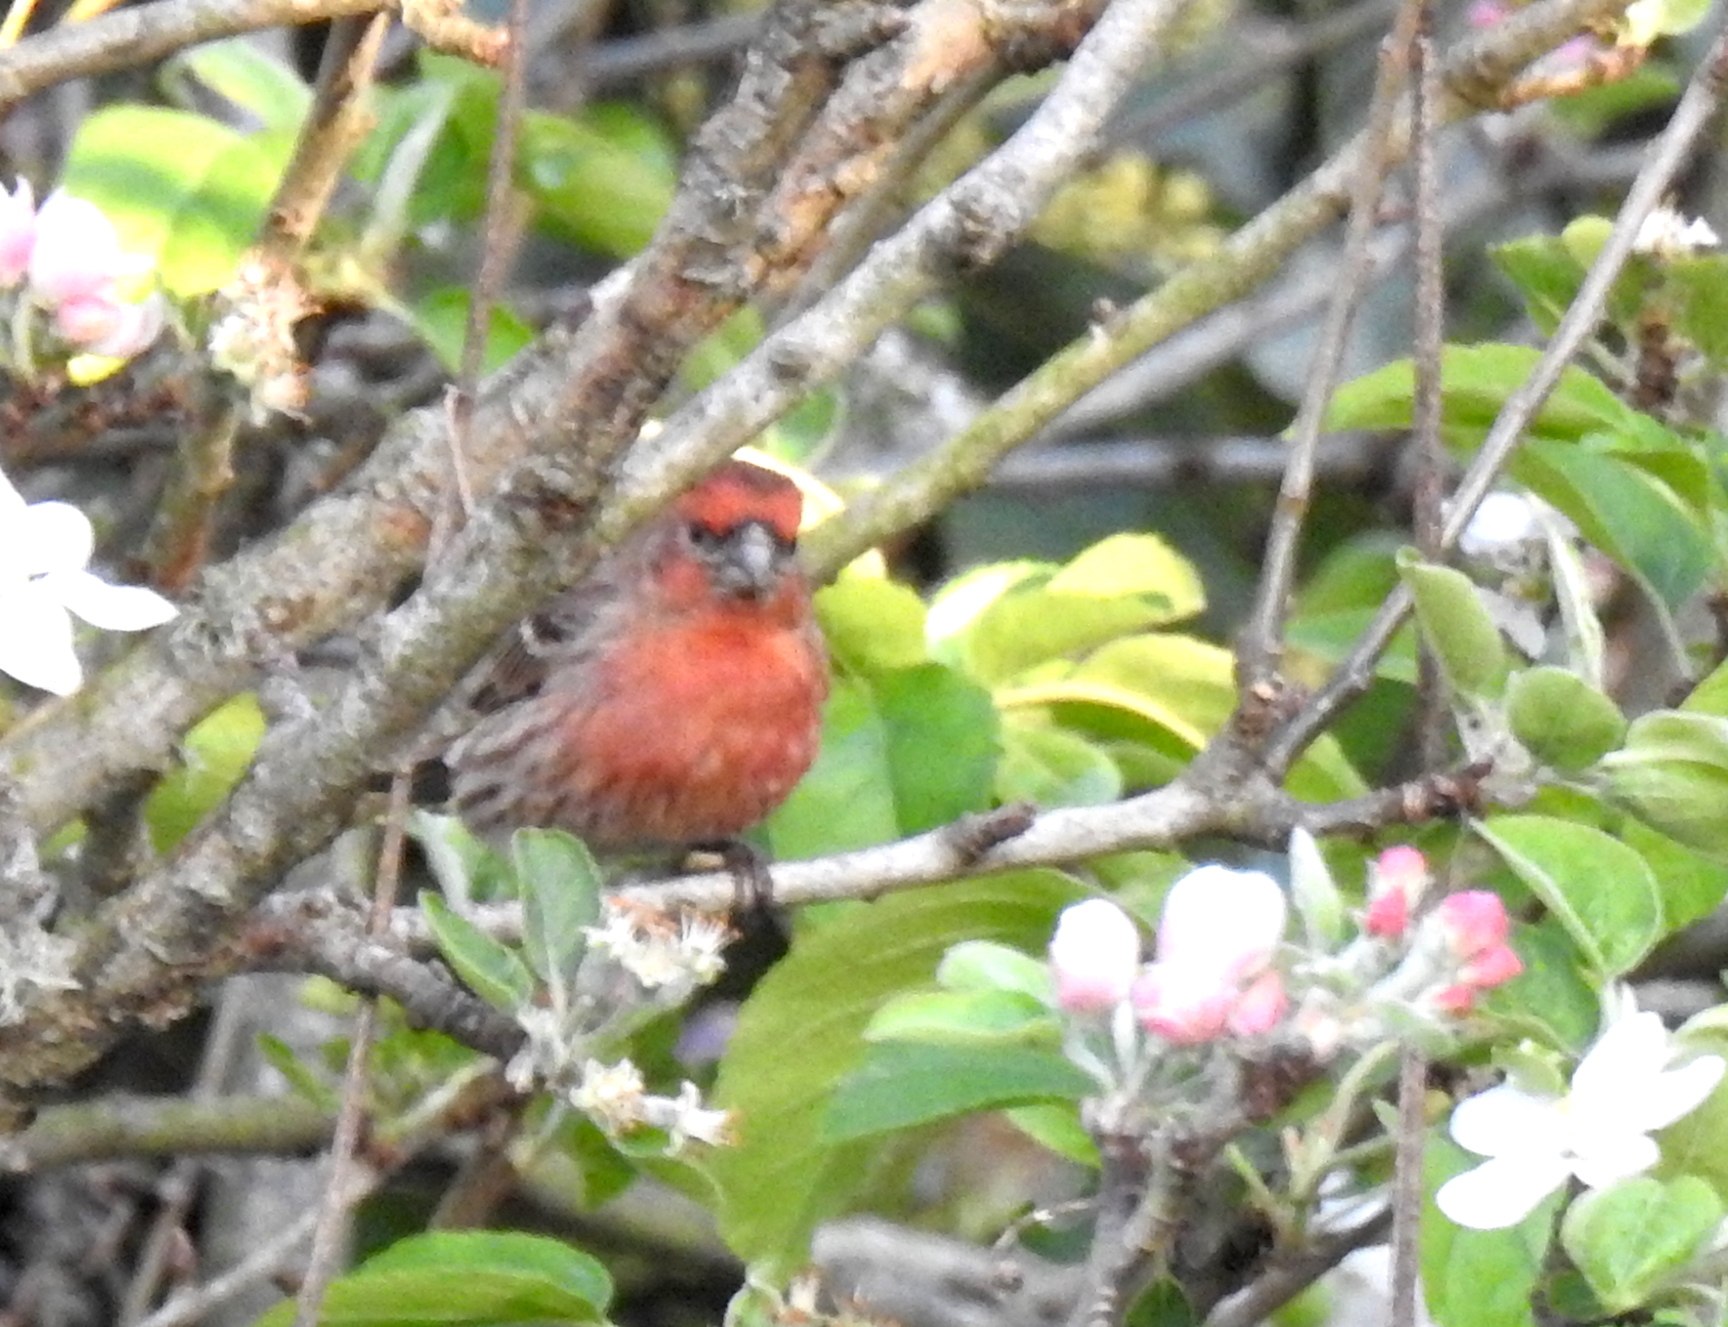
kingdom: Animalia
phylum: Chordata
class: Aves
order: Passeriformes
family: Fringillidae
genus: Haemorhous
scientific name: Haemorhous mexicanus
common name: House finch
